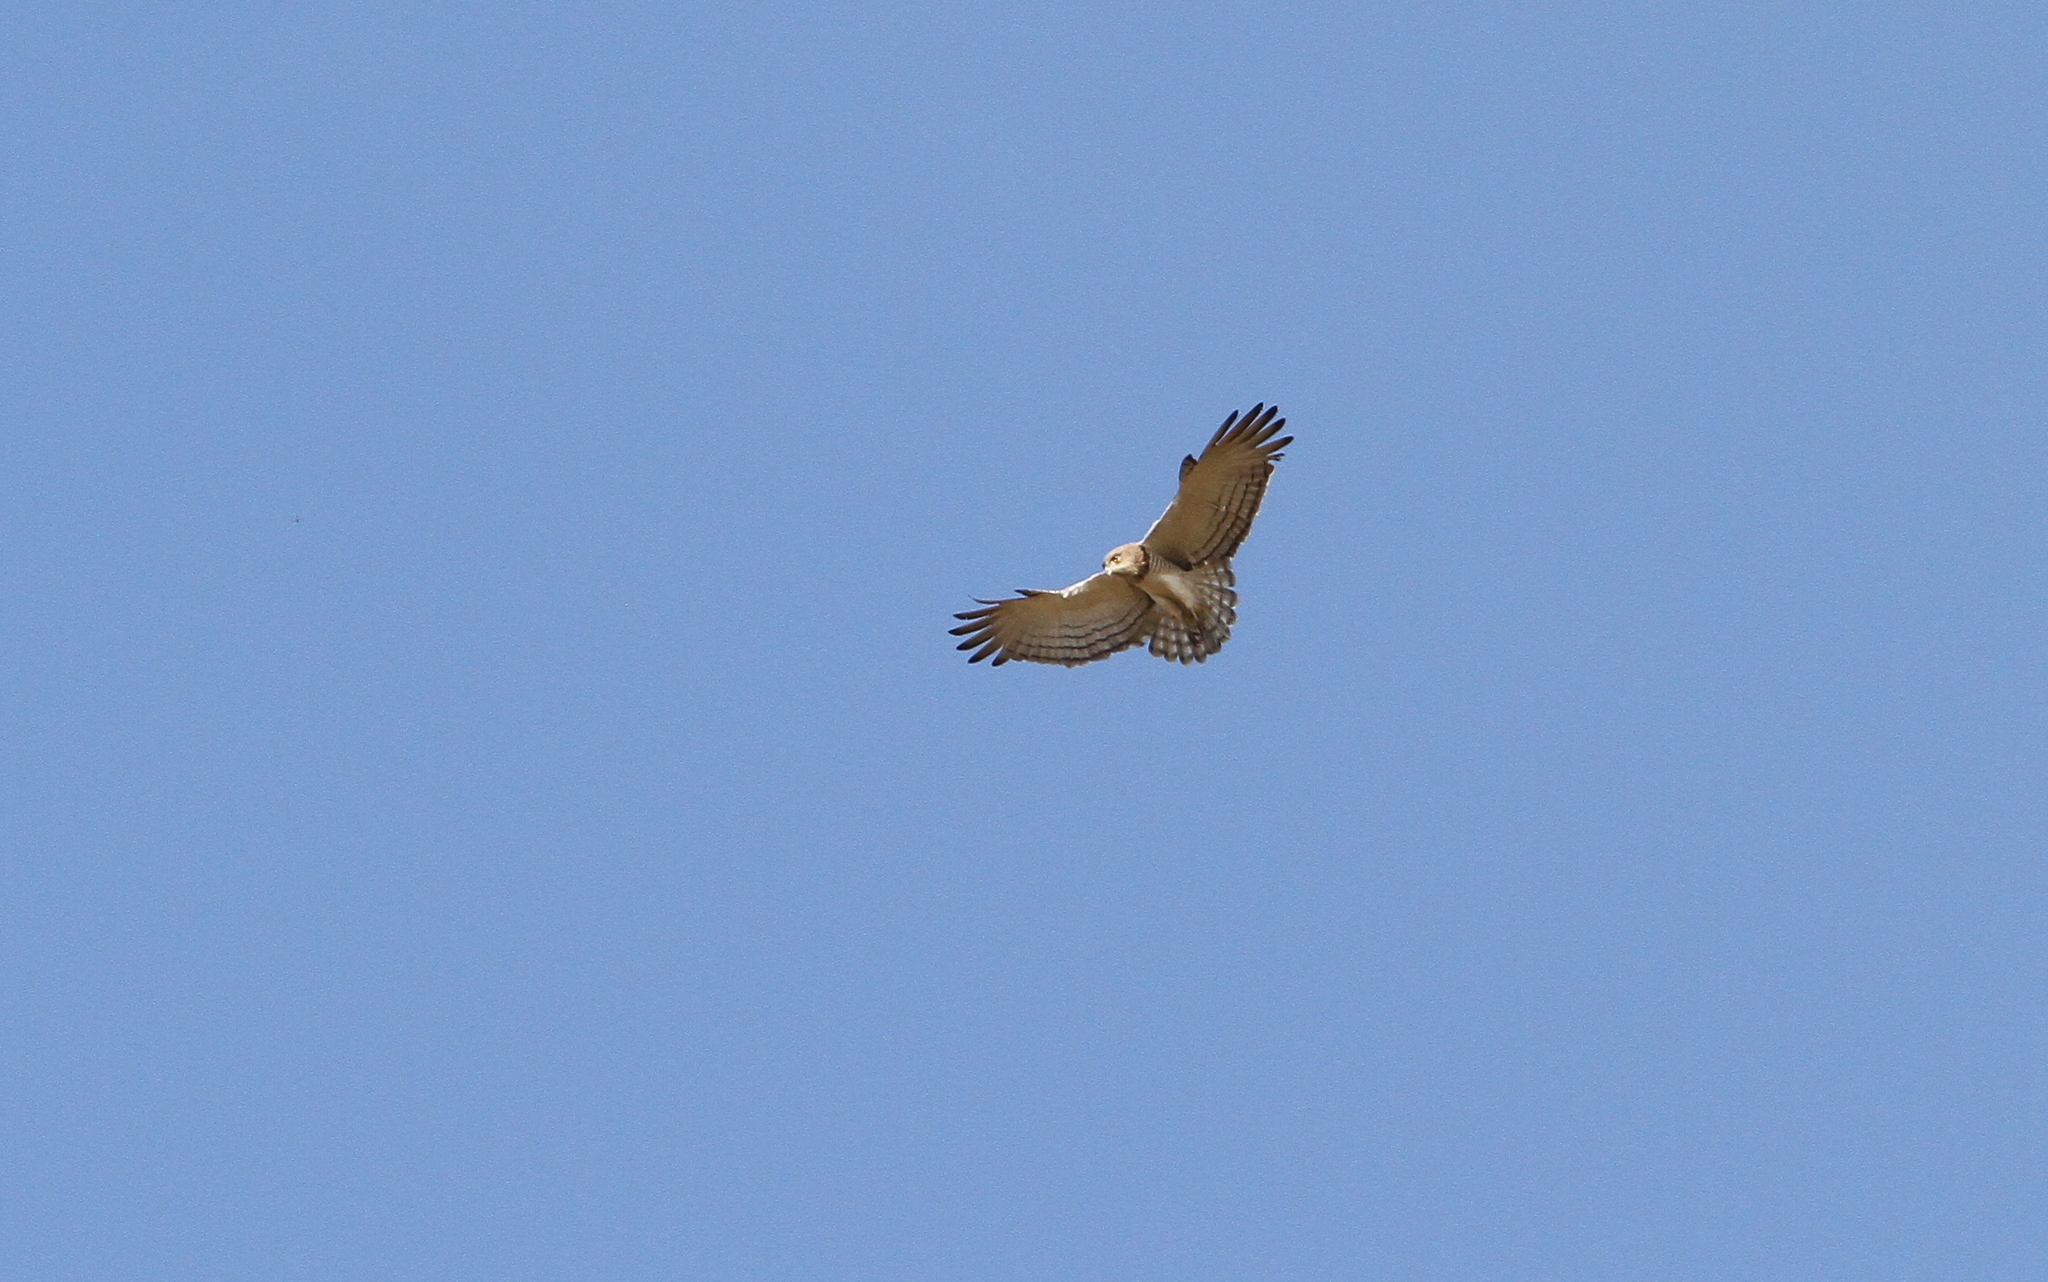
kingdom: Animalia
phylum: Chordata
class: Aves
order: Accipitriformes
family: Accipitridae
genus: Circaetus
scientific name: Circaetus beaudouini
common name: Beaudouin's snake eagle
